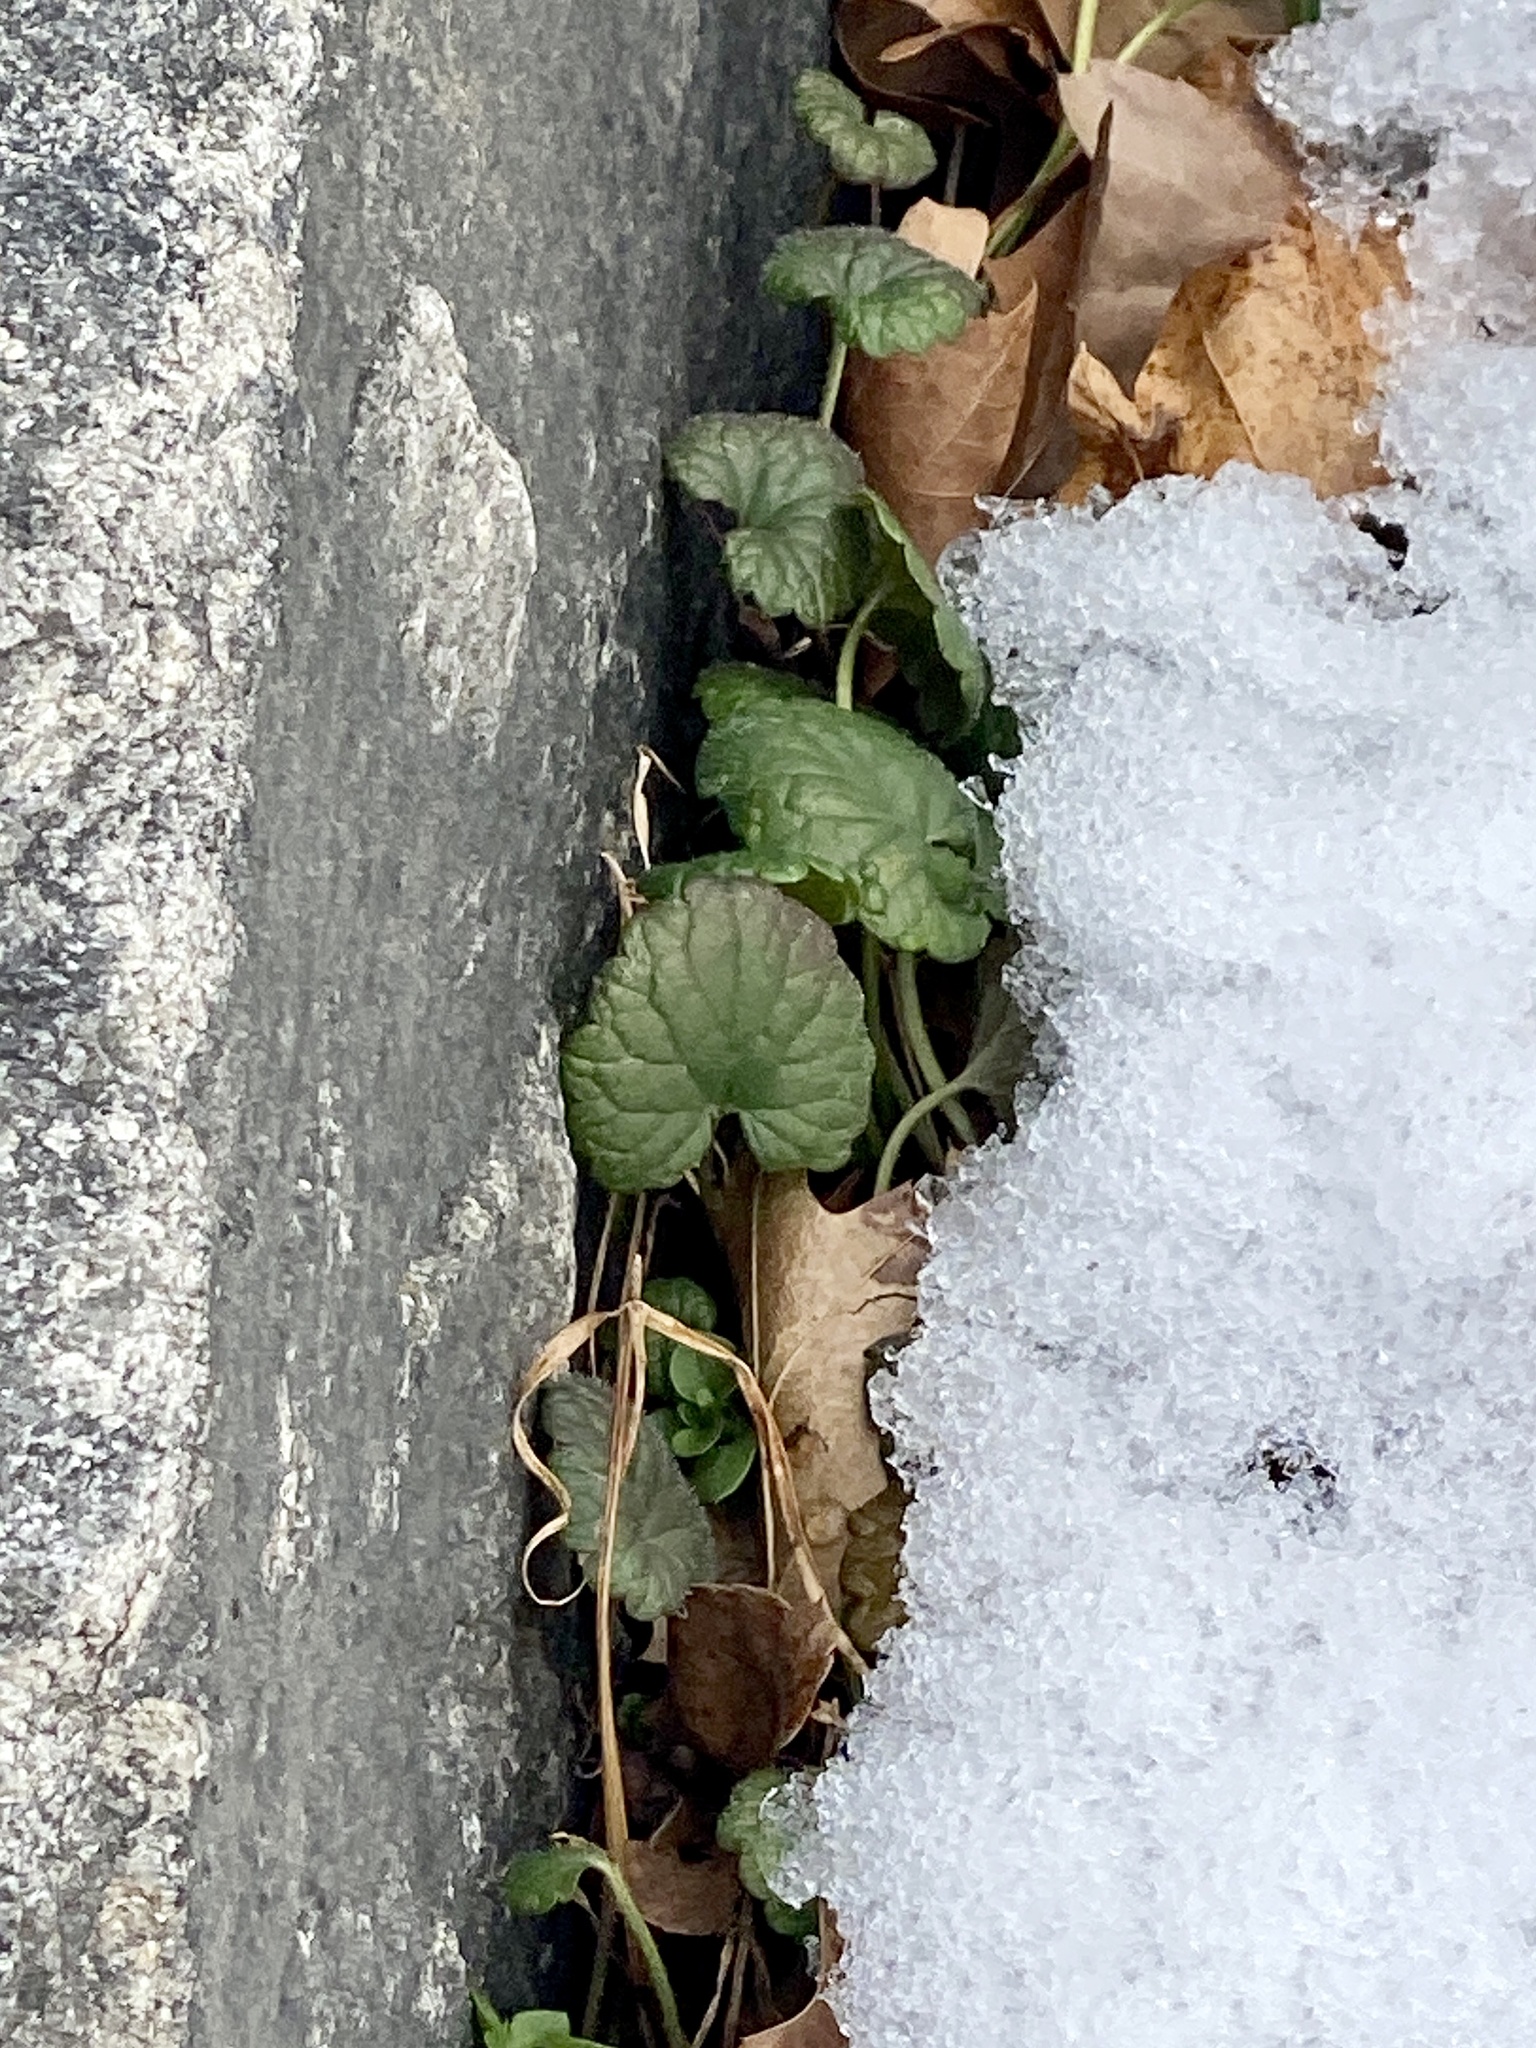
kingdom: Plantae
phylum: Tracheophyta
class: Magnoliopsida
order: Lamiales
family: Lamiaceae
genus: Glechoma
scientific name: Glechoma hederacea
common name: Ground ivy
